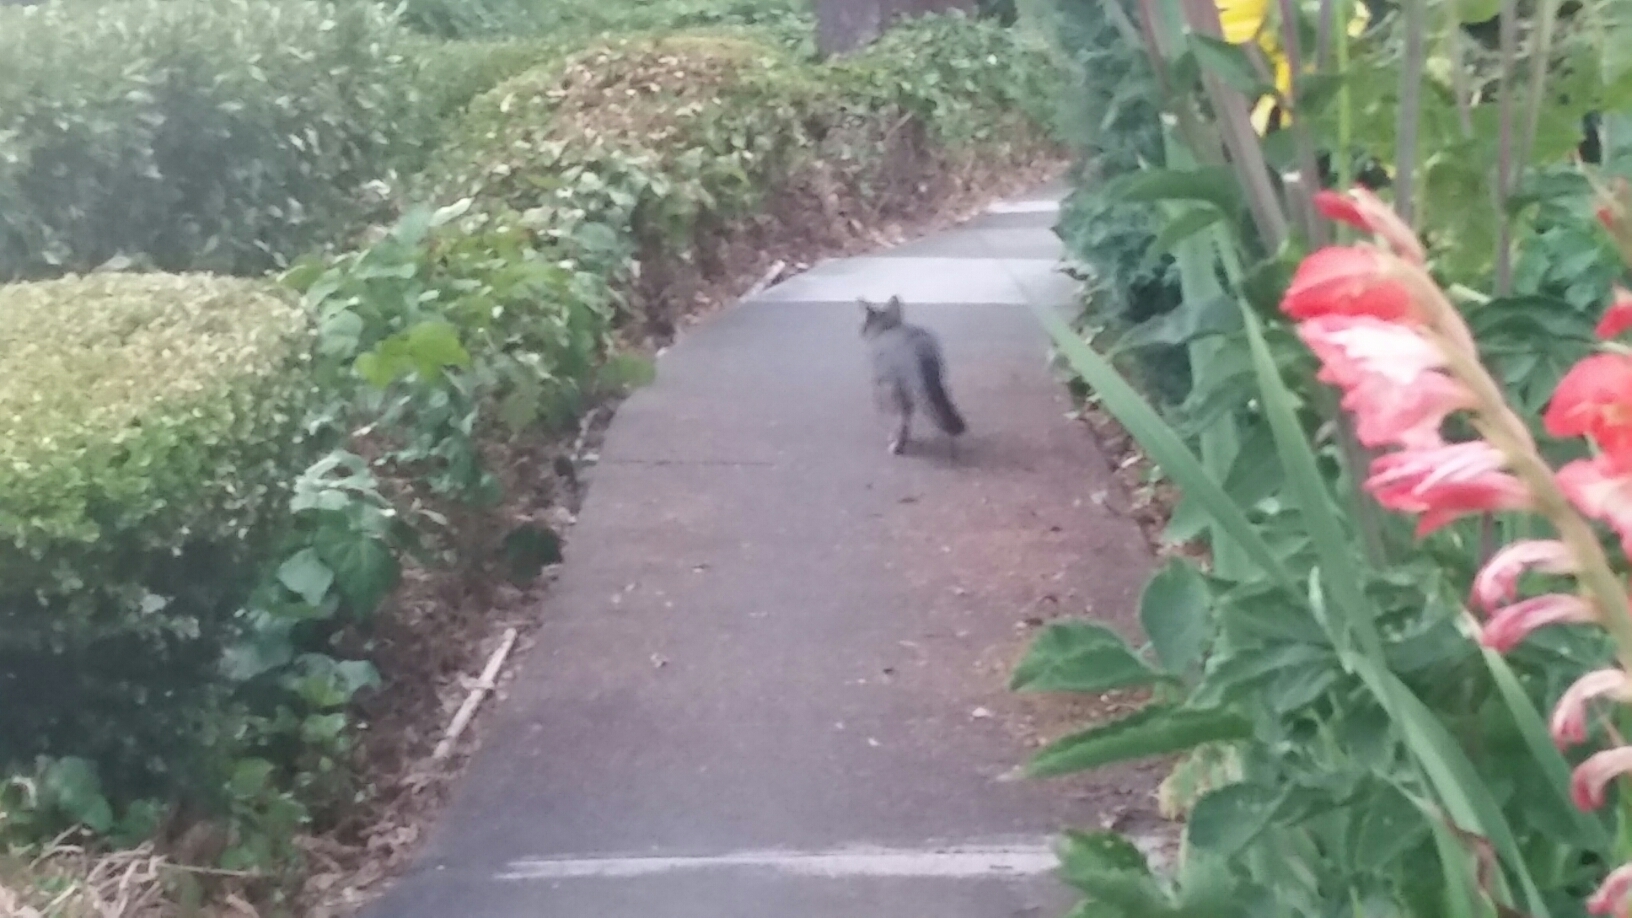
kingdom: Animalia
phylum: Chordata
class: Mammalia
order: Carnivora
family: Canidae
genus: Urocyon
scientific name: Urocyon cinereoargenteus
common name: Gray fox
